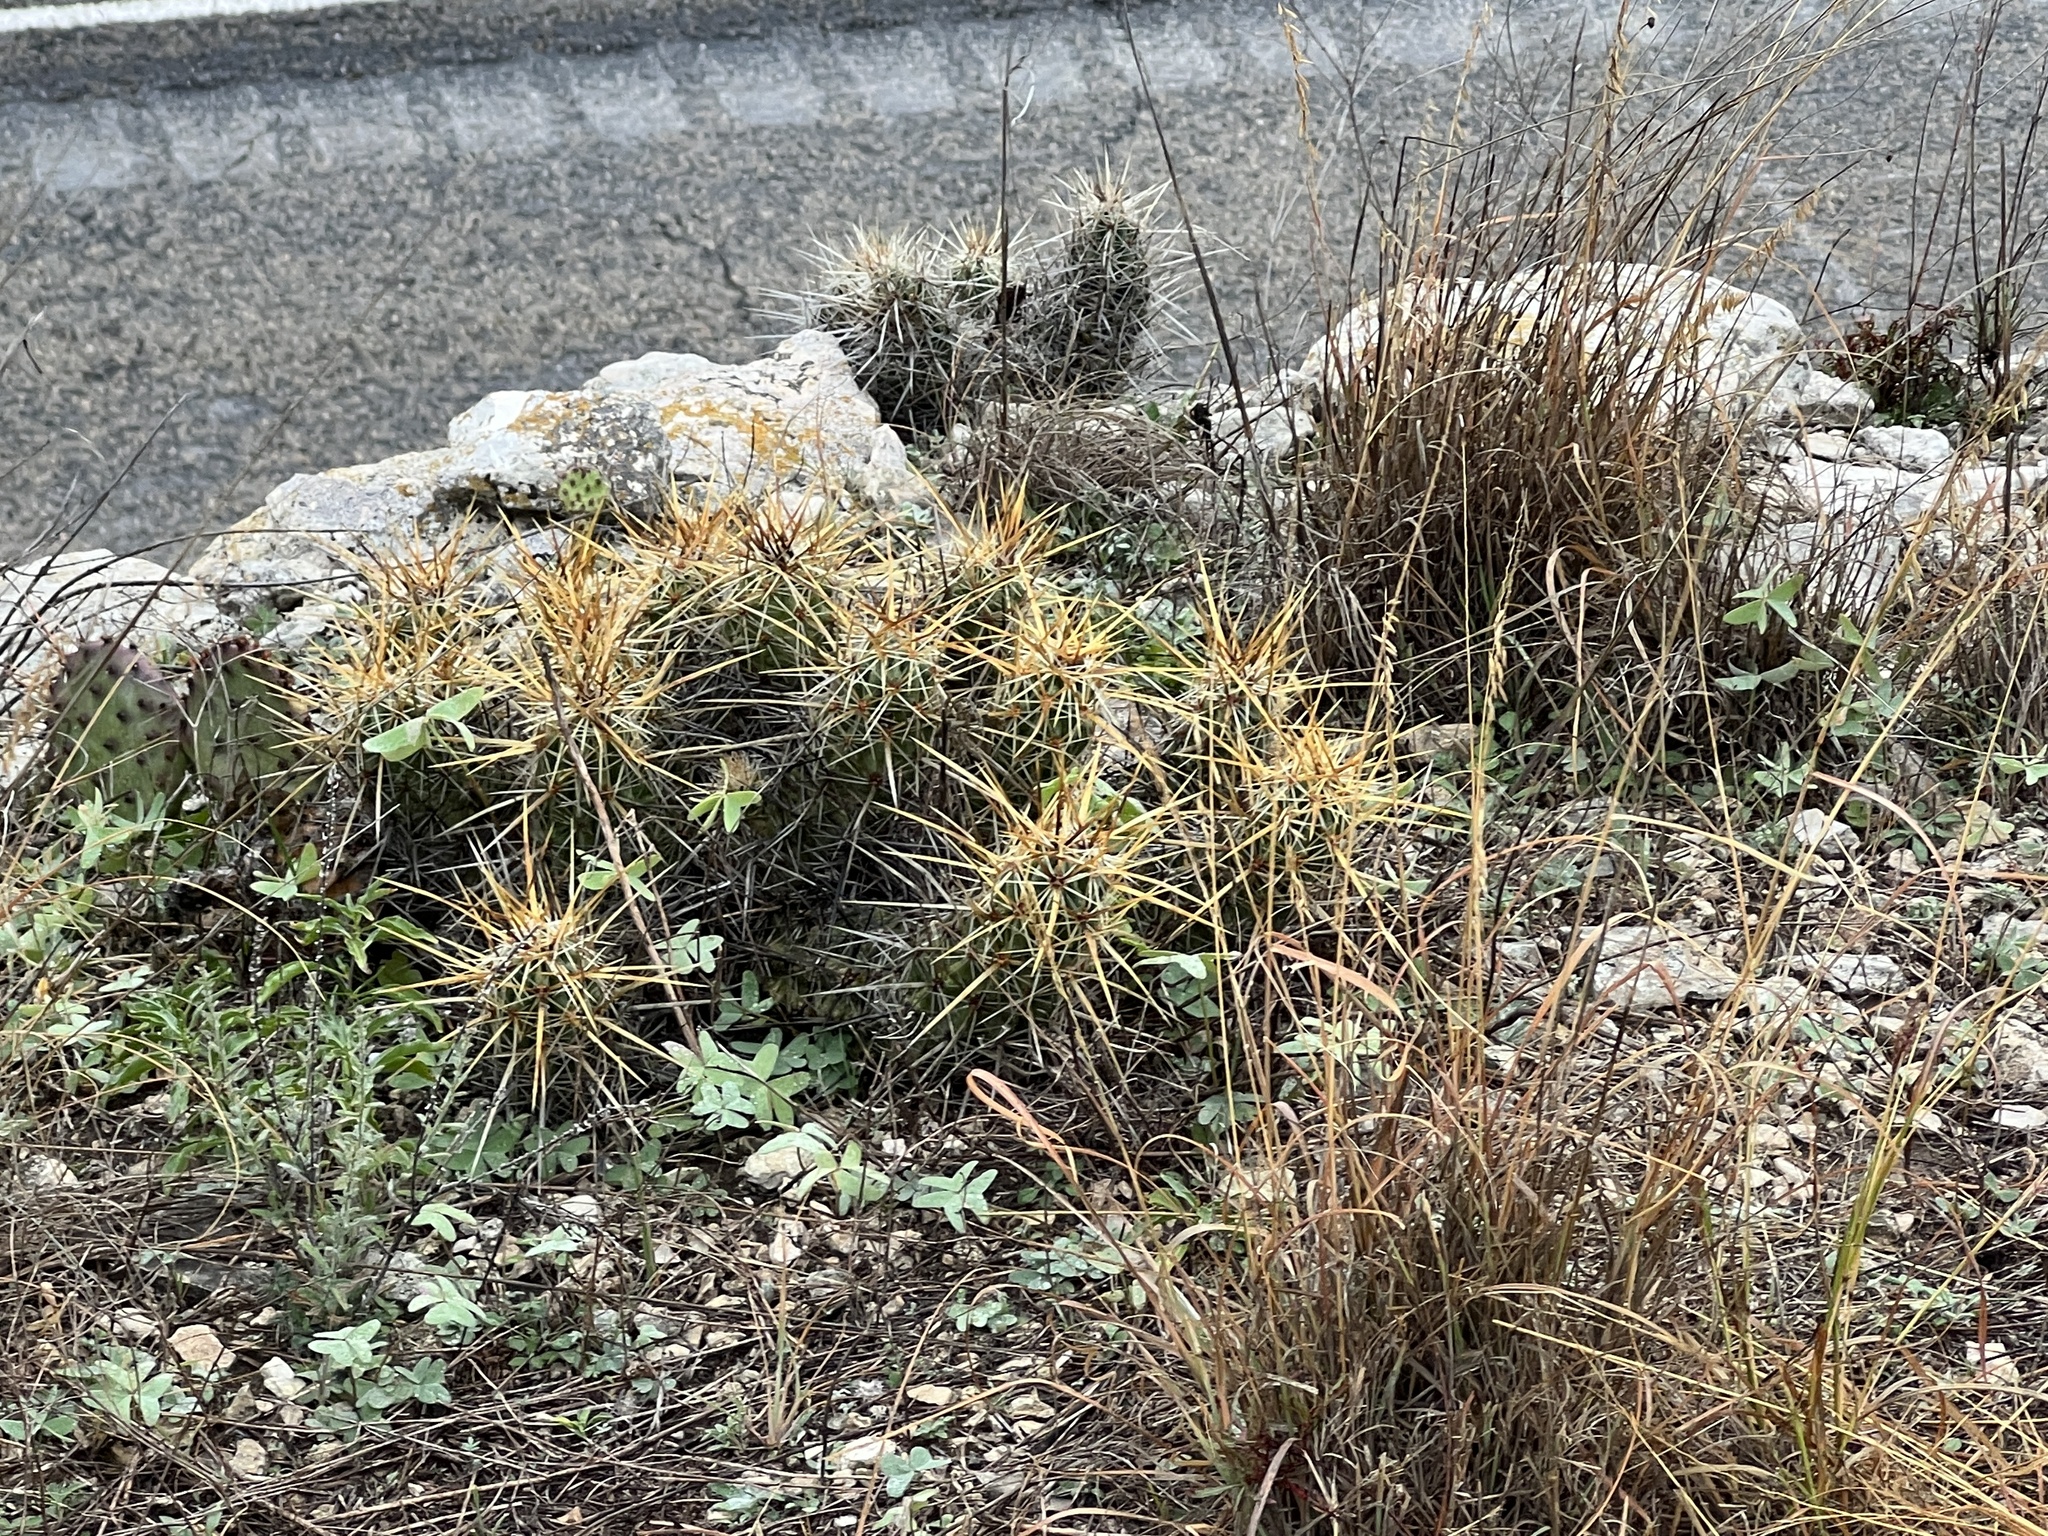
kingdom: Plantae
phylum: Tracheophyta
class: Magnoliopsida
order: Caryophyllales
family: Cactaceae
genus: Echinocereus
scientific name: Echinocereus enneacanthus
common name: Pitaya
